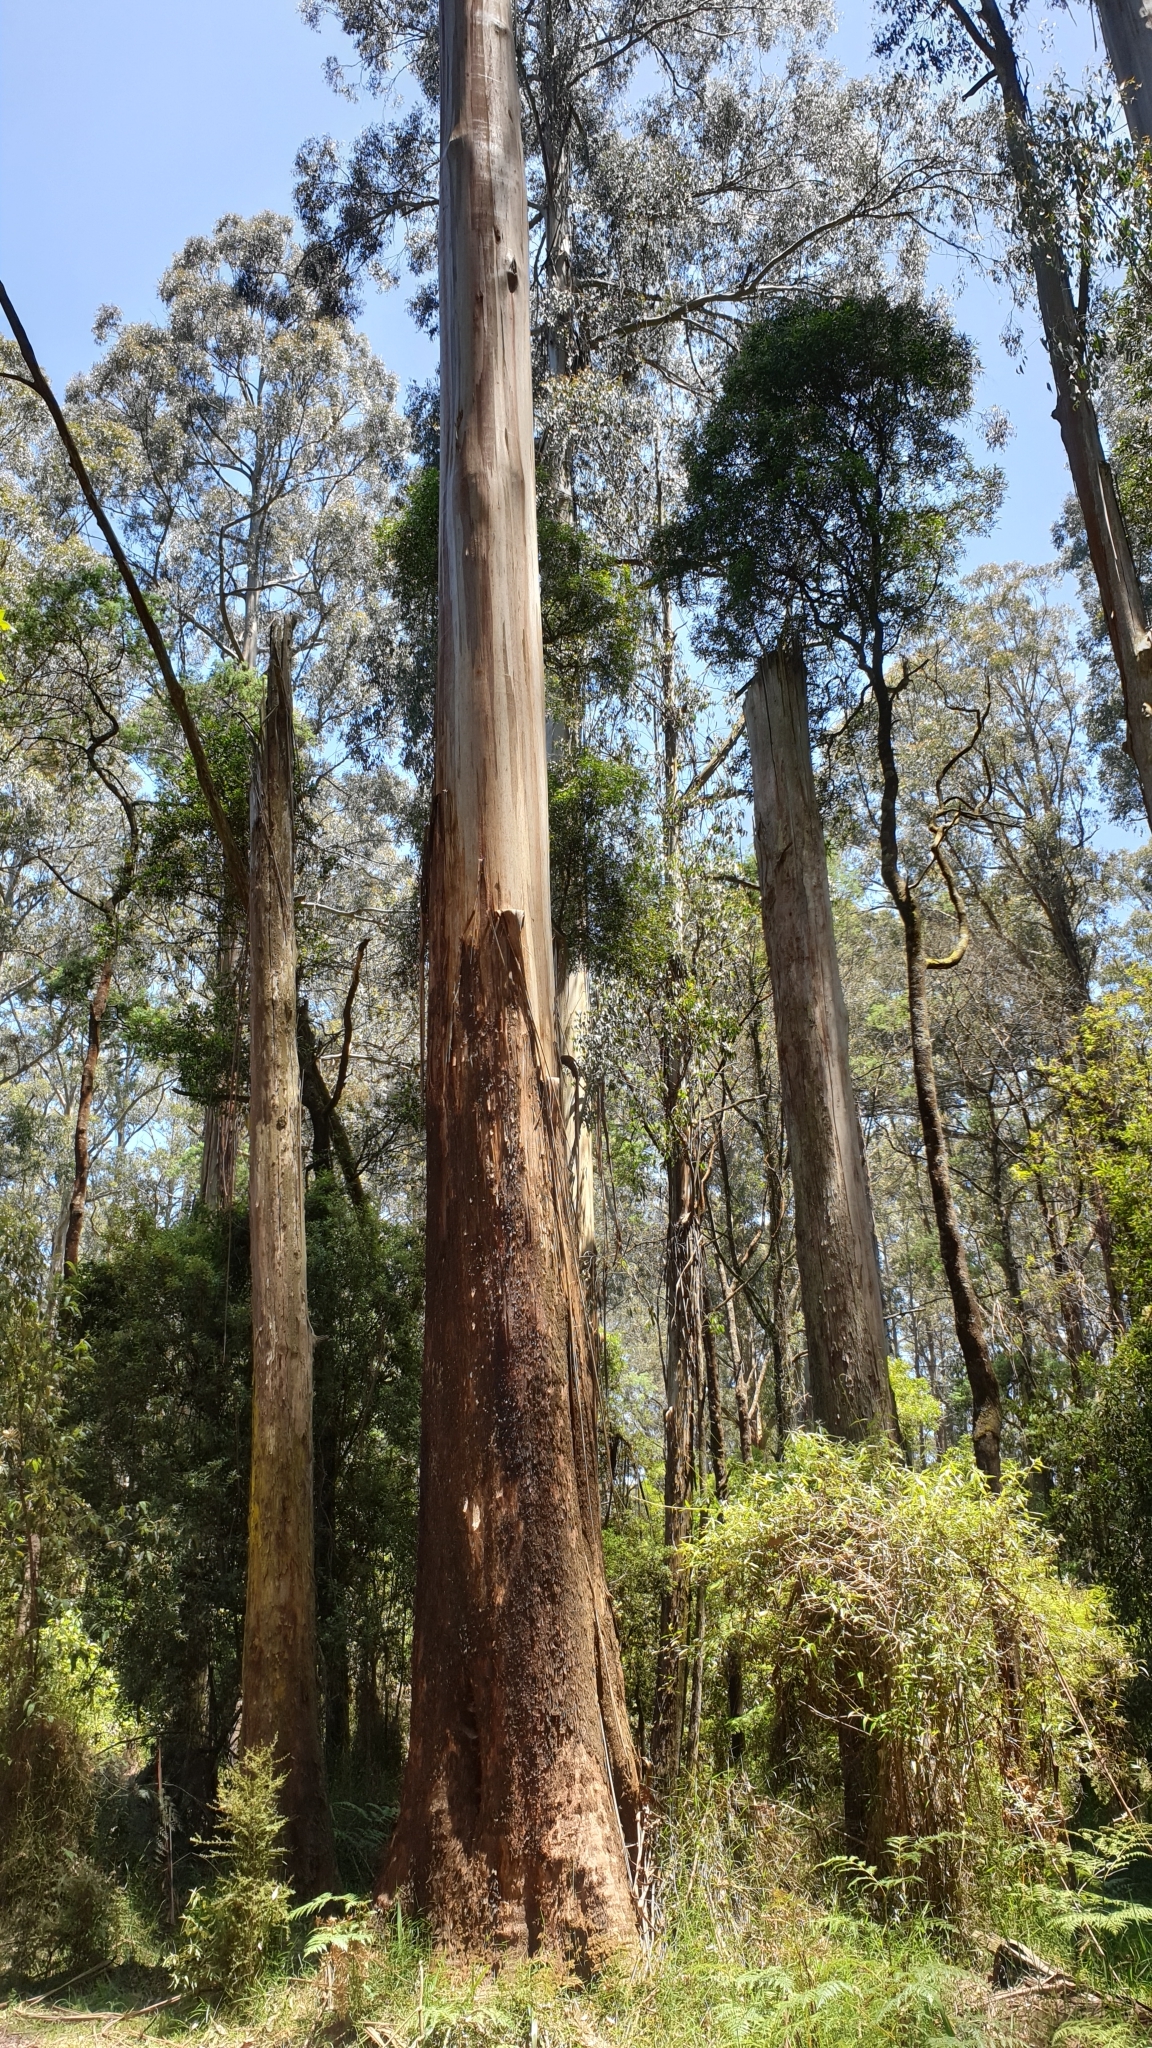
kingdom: Plantae
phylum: Tracheophyta
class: Magnoliopsida
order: Myrtales
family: Myrtaceae
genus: Eucalyptus
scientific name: Eucalyptus regnans
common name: Stringy gum
